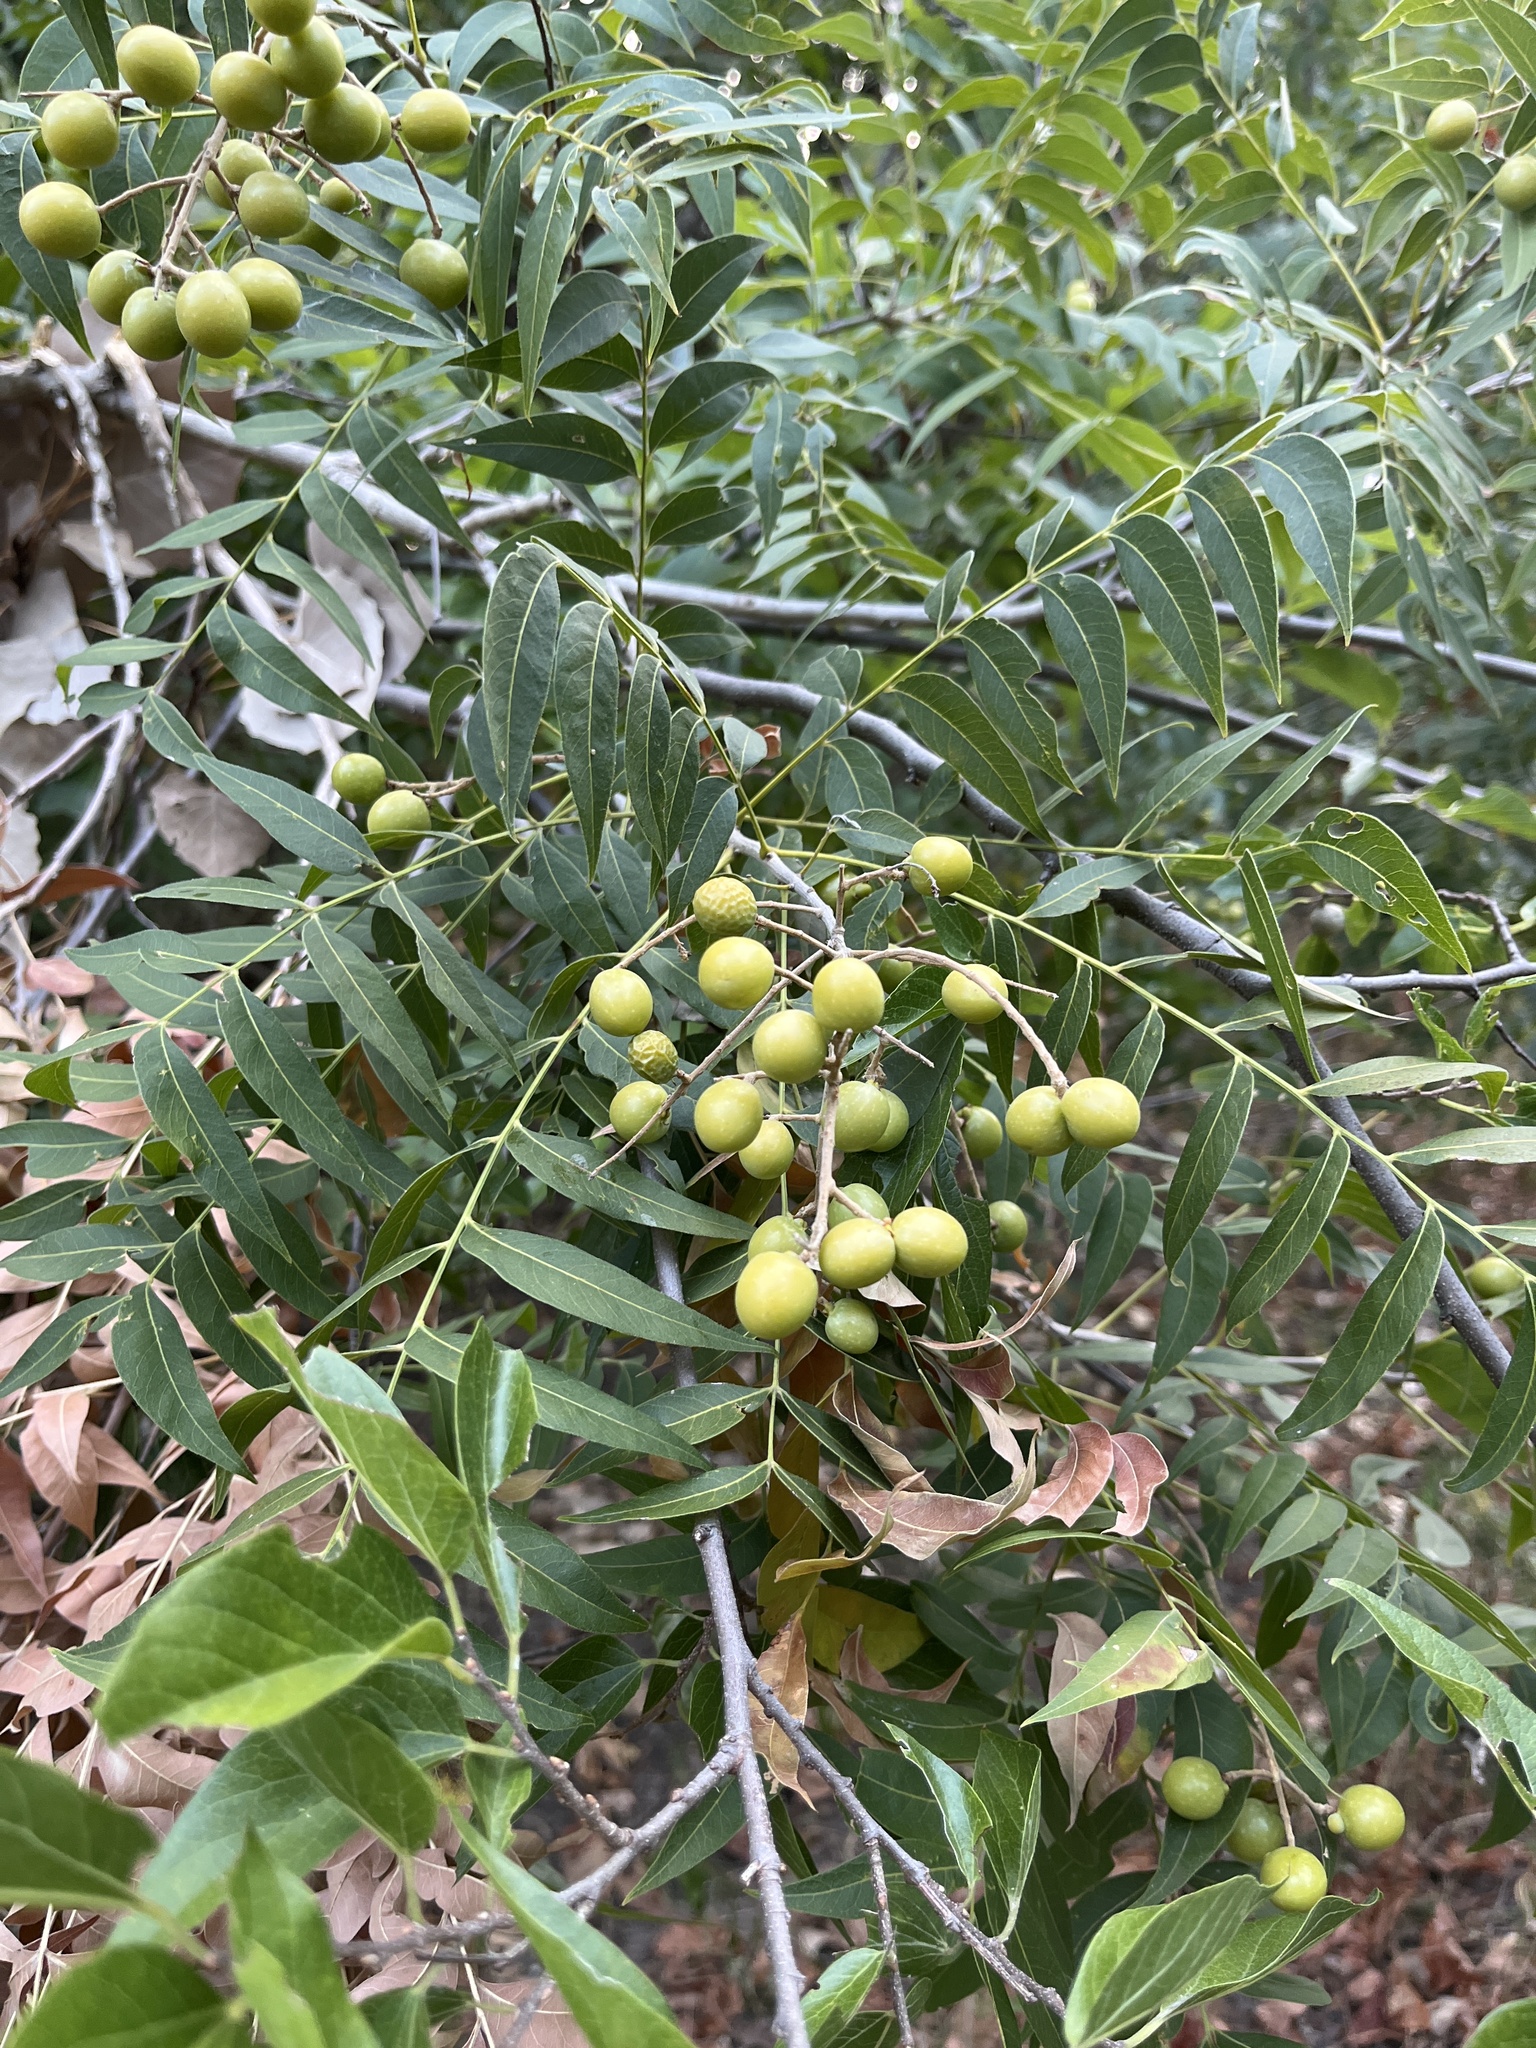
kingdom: Plantae
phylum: Tracheophyta
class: Magnoliopsida
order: Sapindales
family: Sapindaceae
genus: Sapindus
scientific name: Sapindus drummondii
